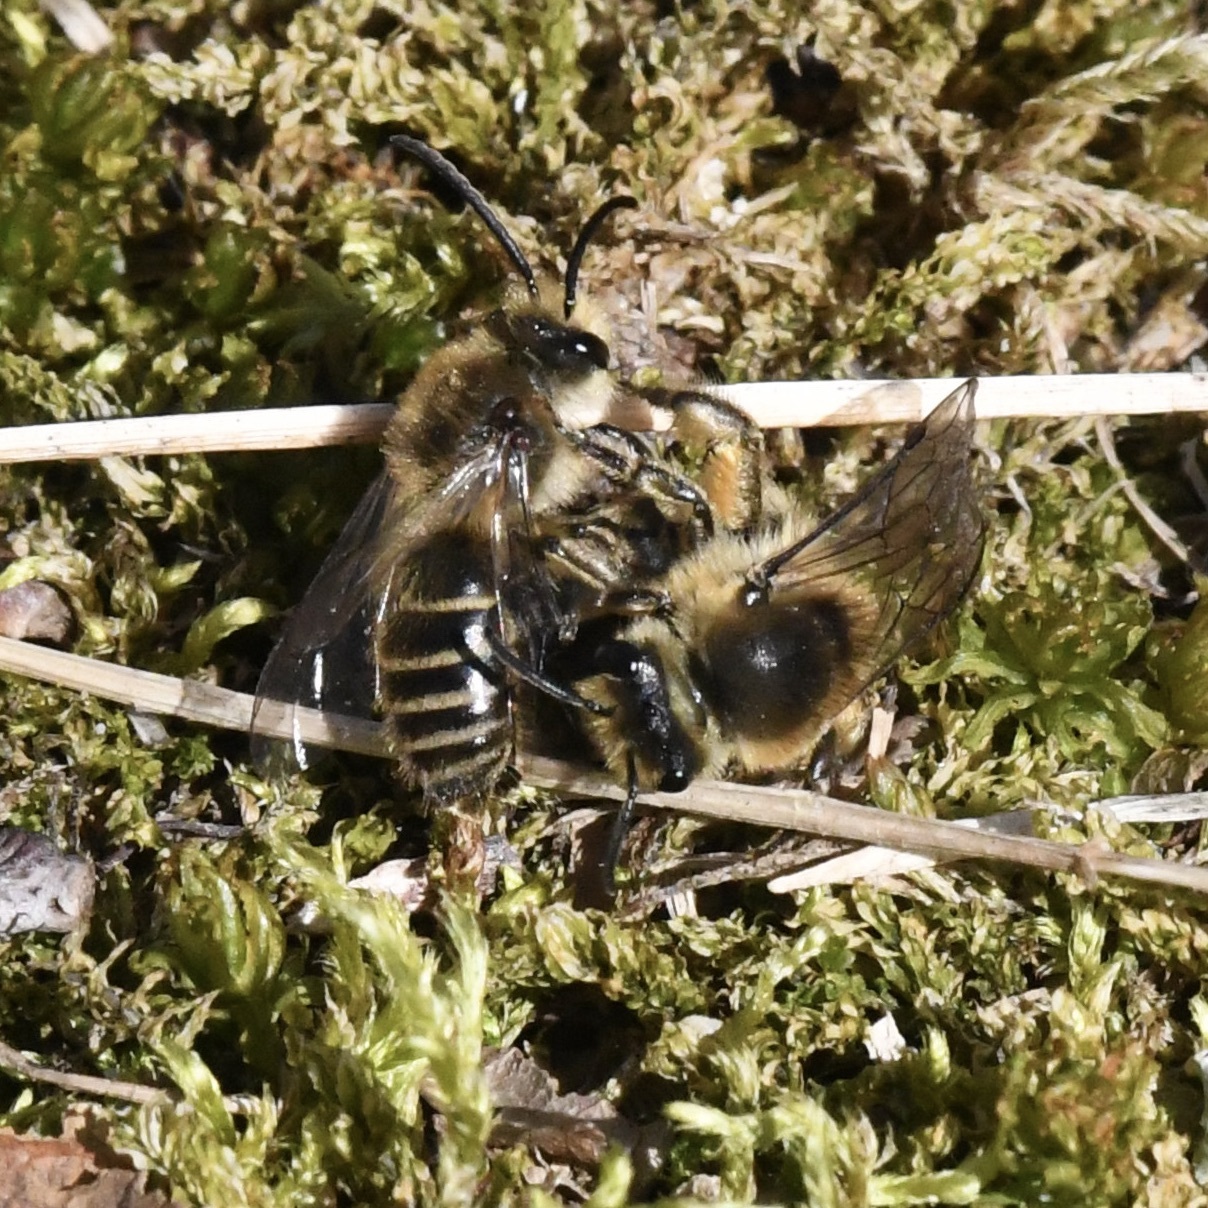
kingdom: Animalia
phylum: Arthropoda
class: Insecta
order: Hymenoptera
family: Colletidae
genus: Colletes
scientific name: Colletes inaequalis
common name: Unequal cellophane bee
